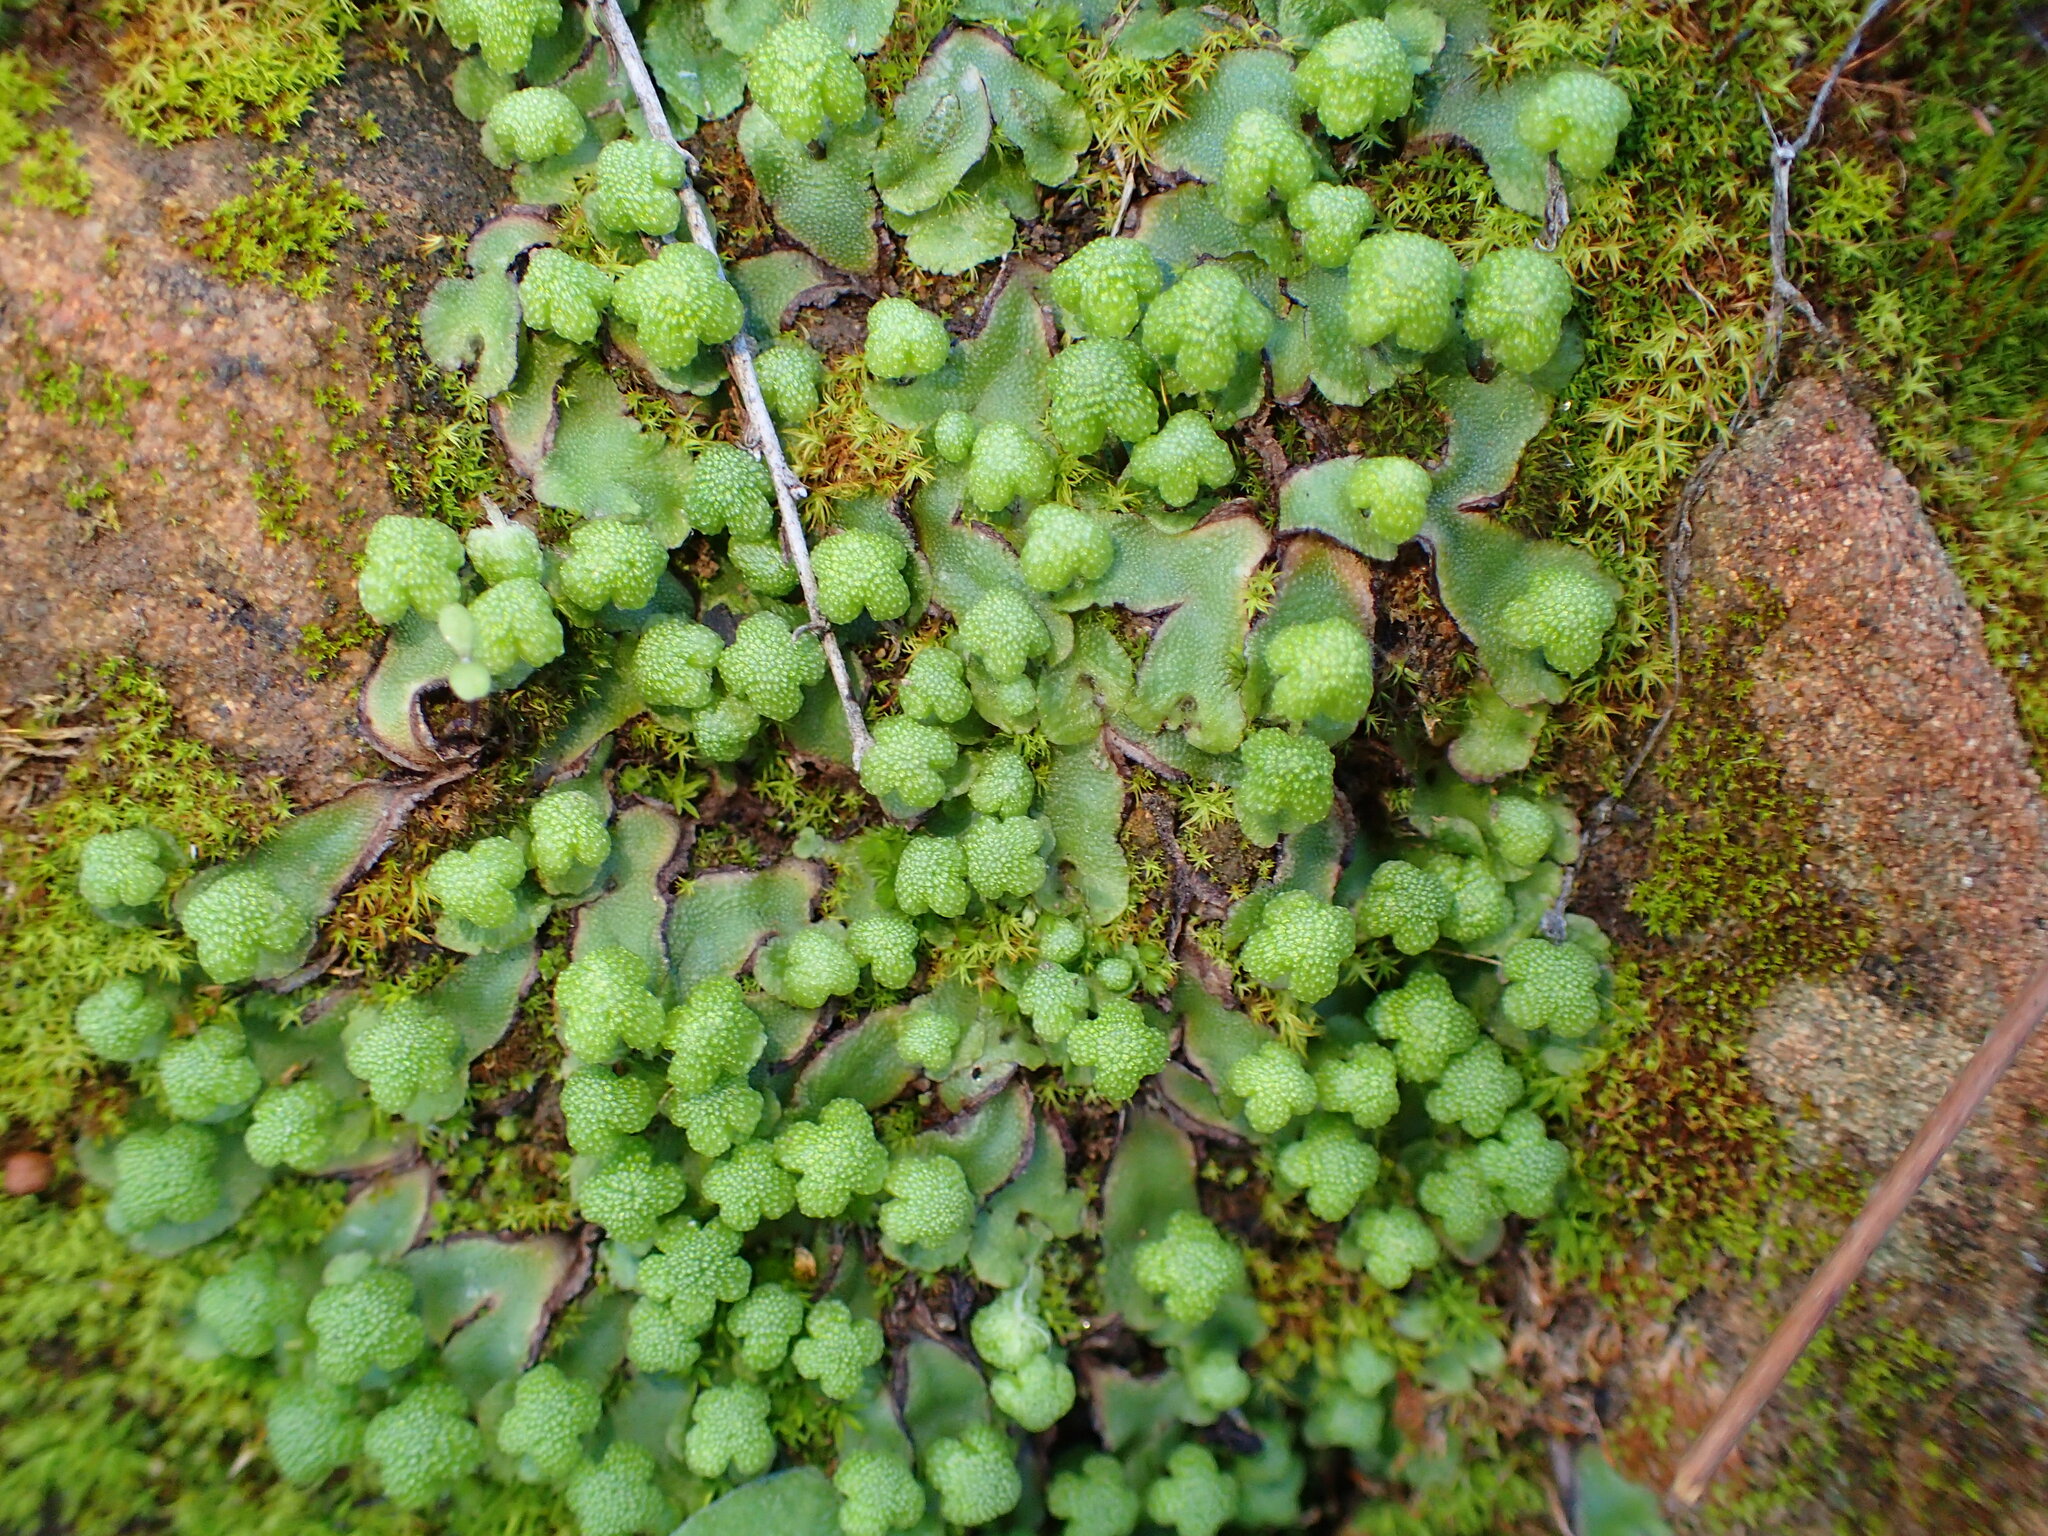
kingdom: Plantae
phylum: Marchantiophyta
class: Marchantiopsida
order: Marchantiales
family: Aytoniaceae
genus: Asterella
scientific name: Asterella californica
